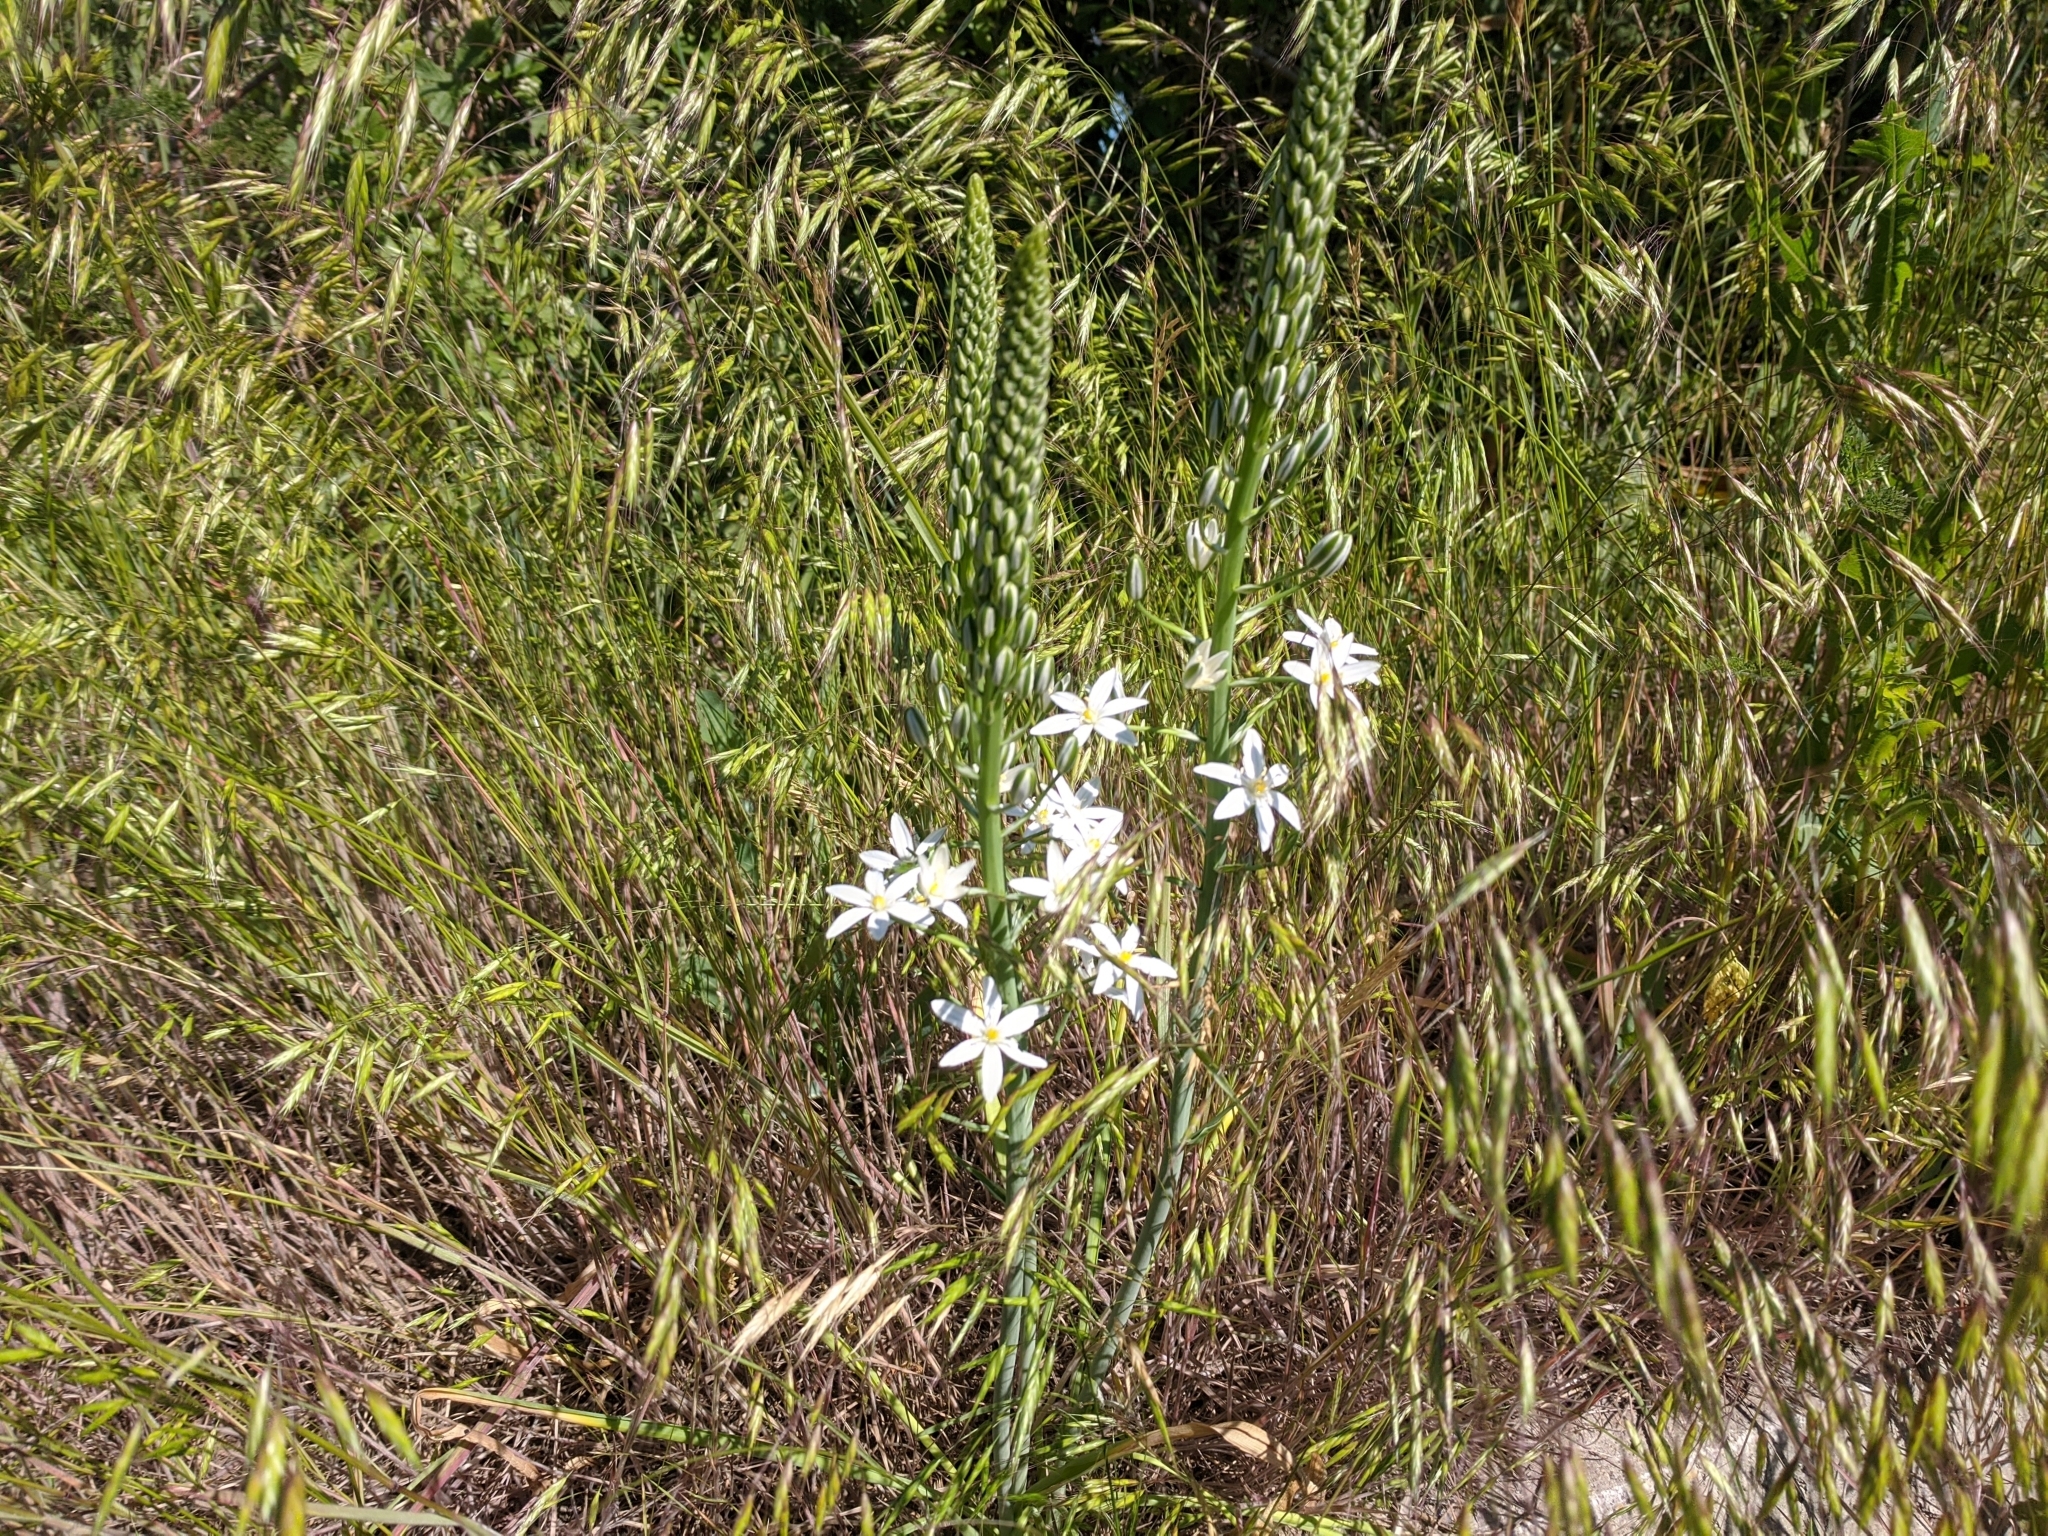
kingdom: Plantae
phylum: Tracheophyta
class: Liliopsida
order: Asparagales
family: Asparagaceae
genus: Ornithogalum
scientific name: Ornithogalum pyramidale
